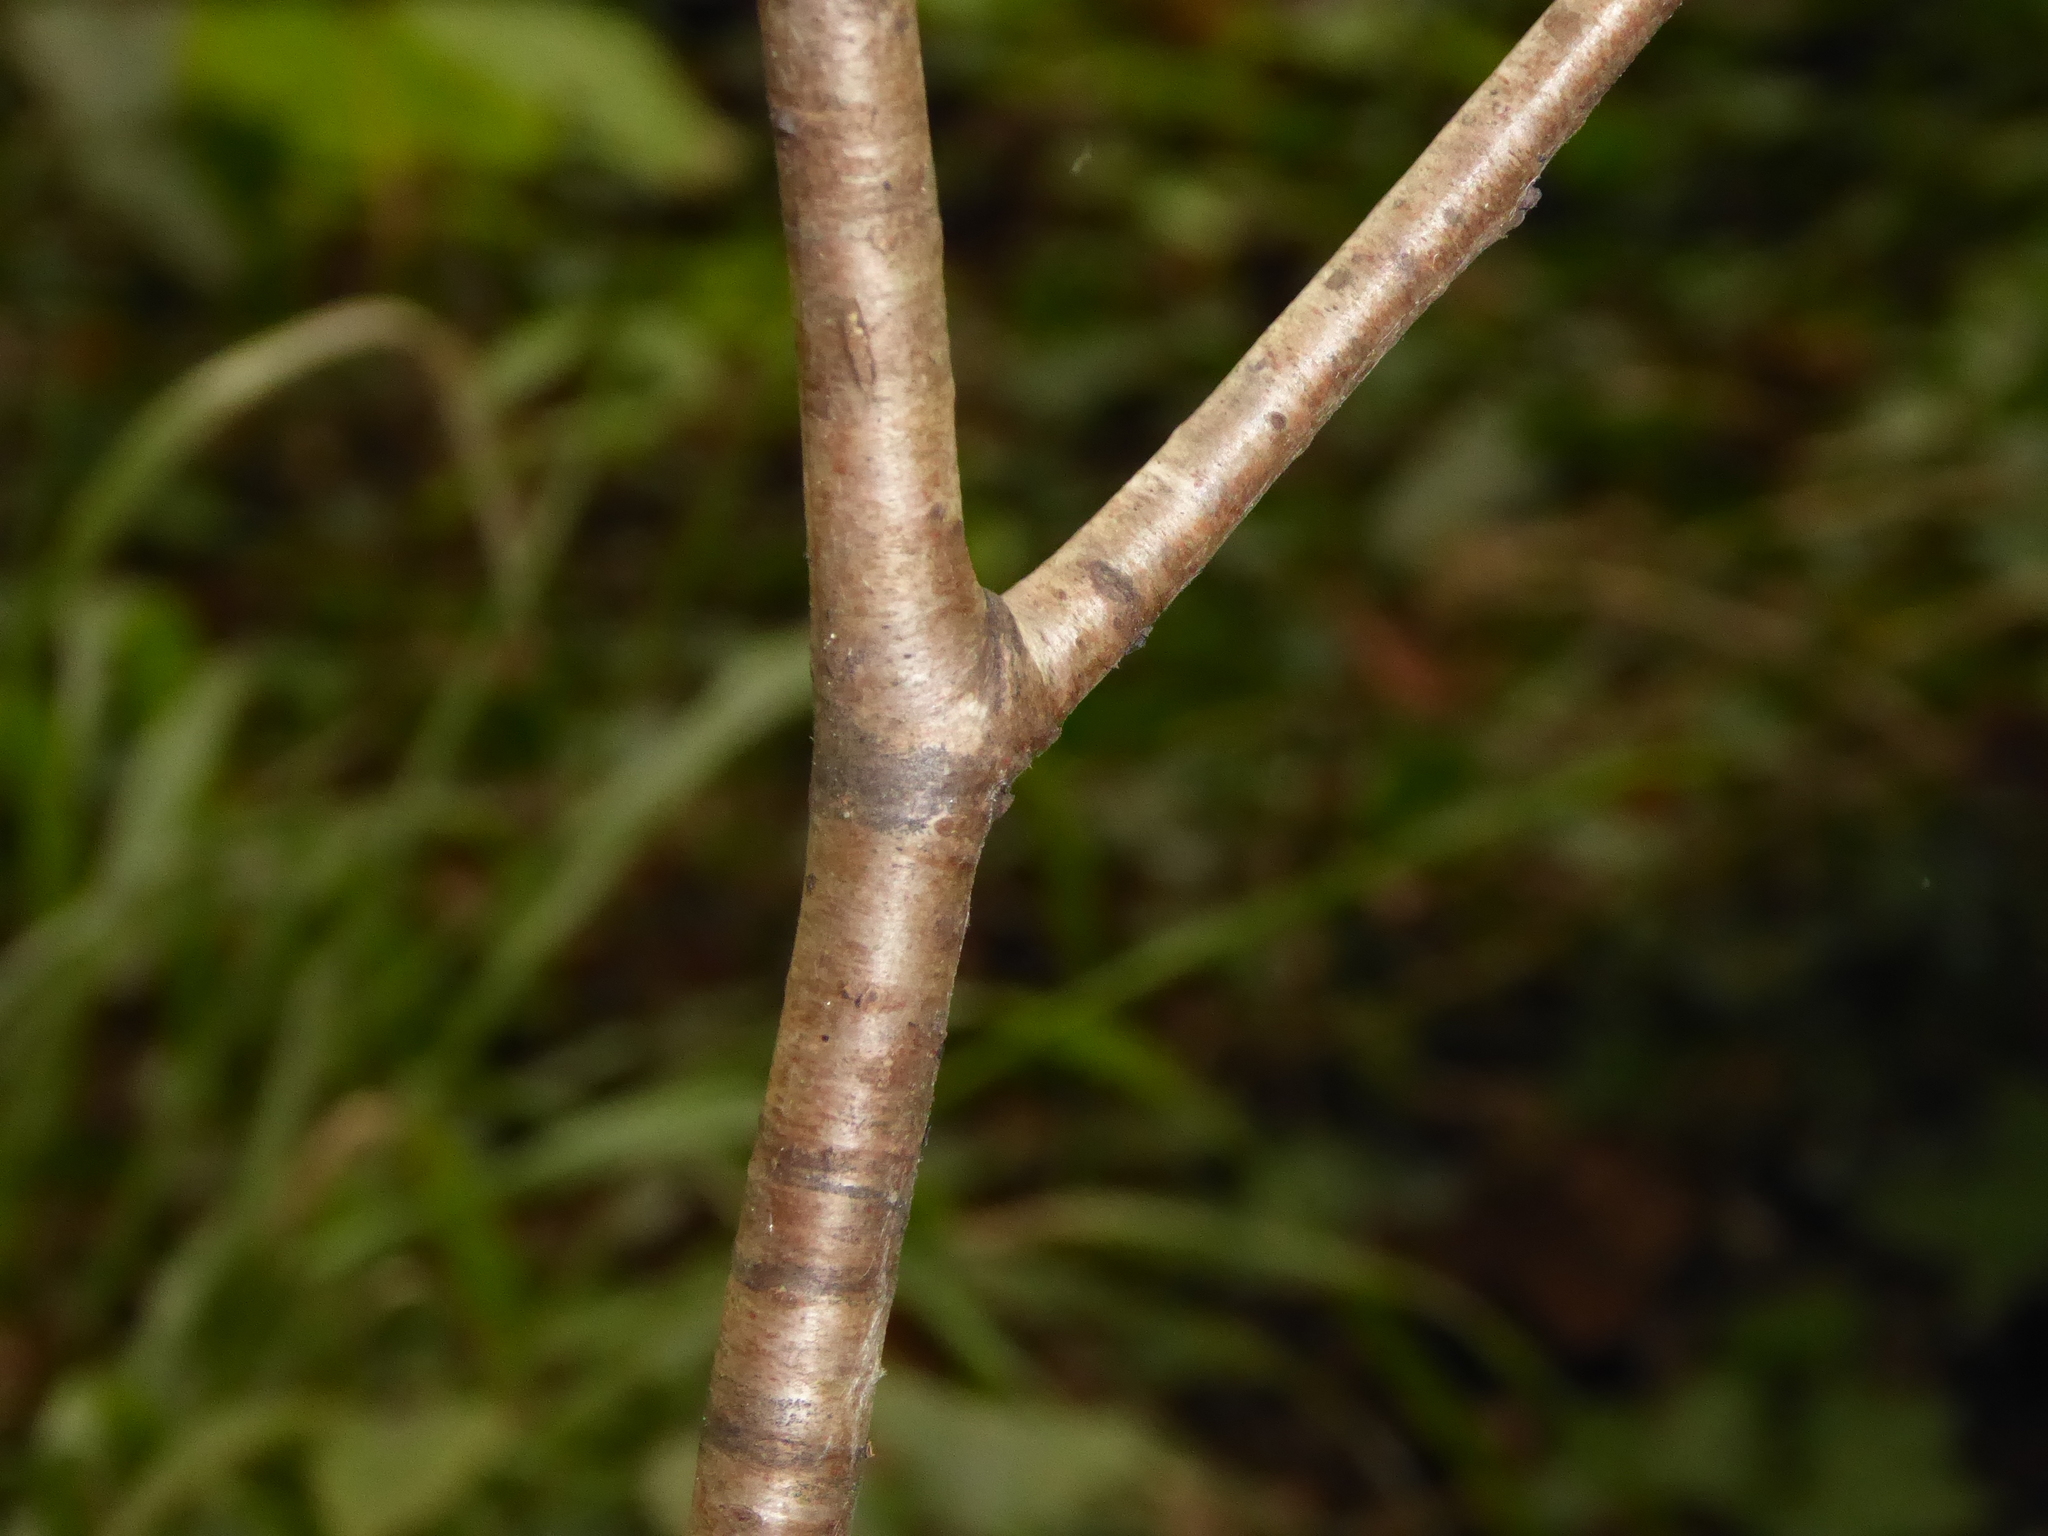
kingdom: Plantae
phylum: Tracheophyta
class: Magnoliopsida
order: Rosales
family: Rosaceae
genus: Prunus
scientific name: Prunus avium
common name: Sweet cherry
